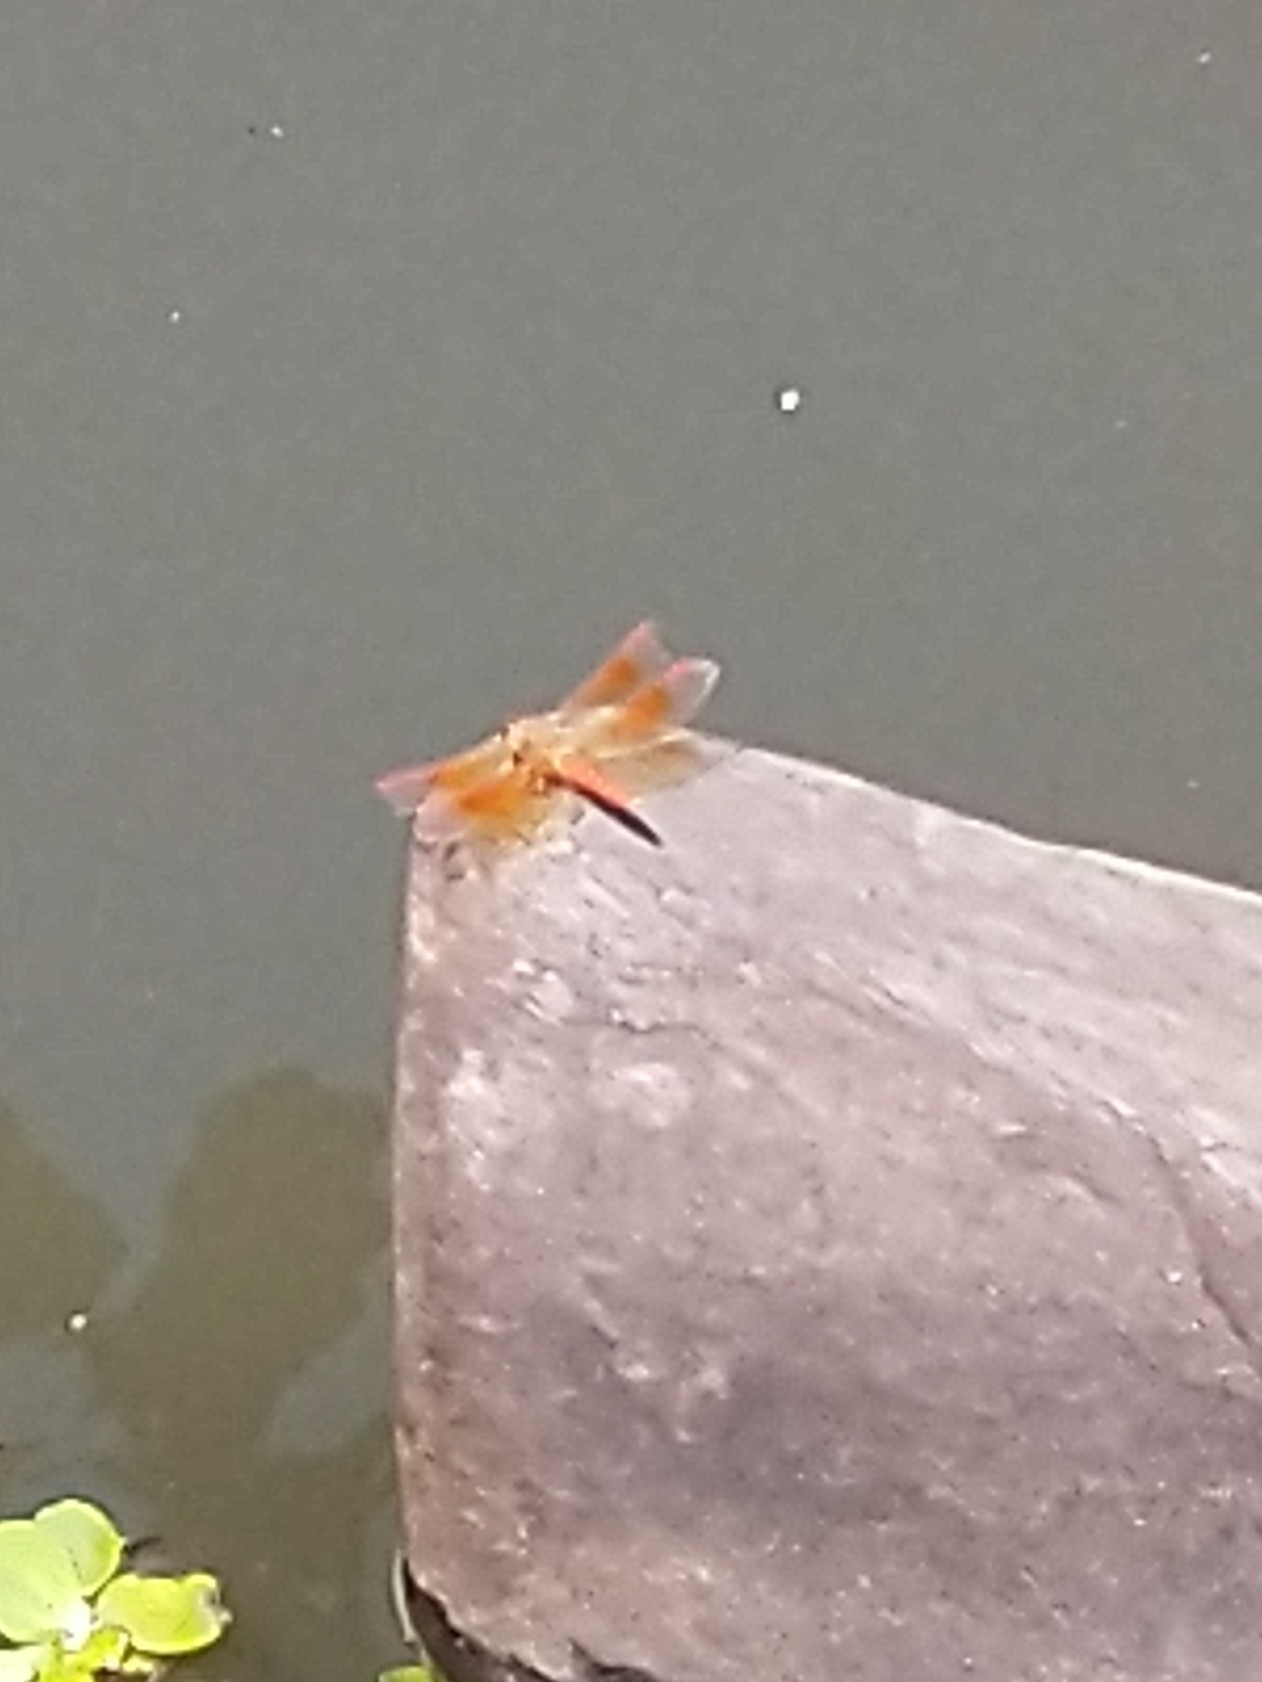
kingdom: Animalia
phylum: Arthropoda
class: Insecta
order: Odonata
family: Libellulidae
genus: Brachythemis
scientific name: Brachythemis contaminata
